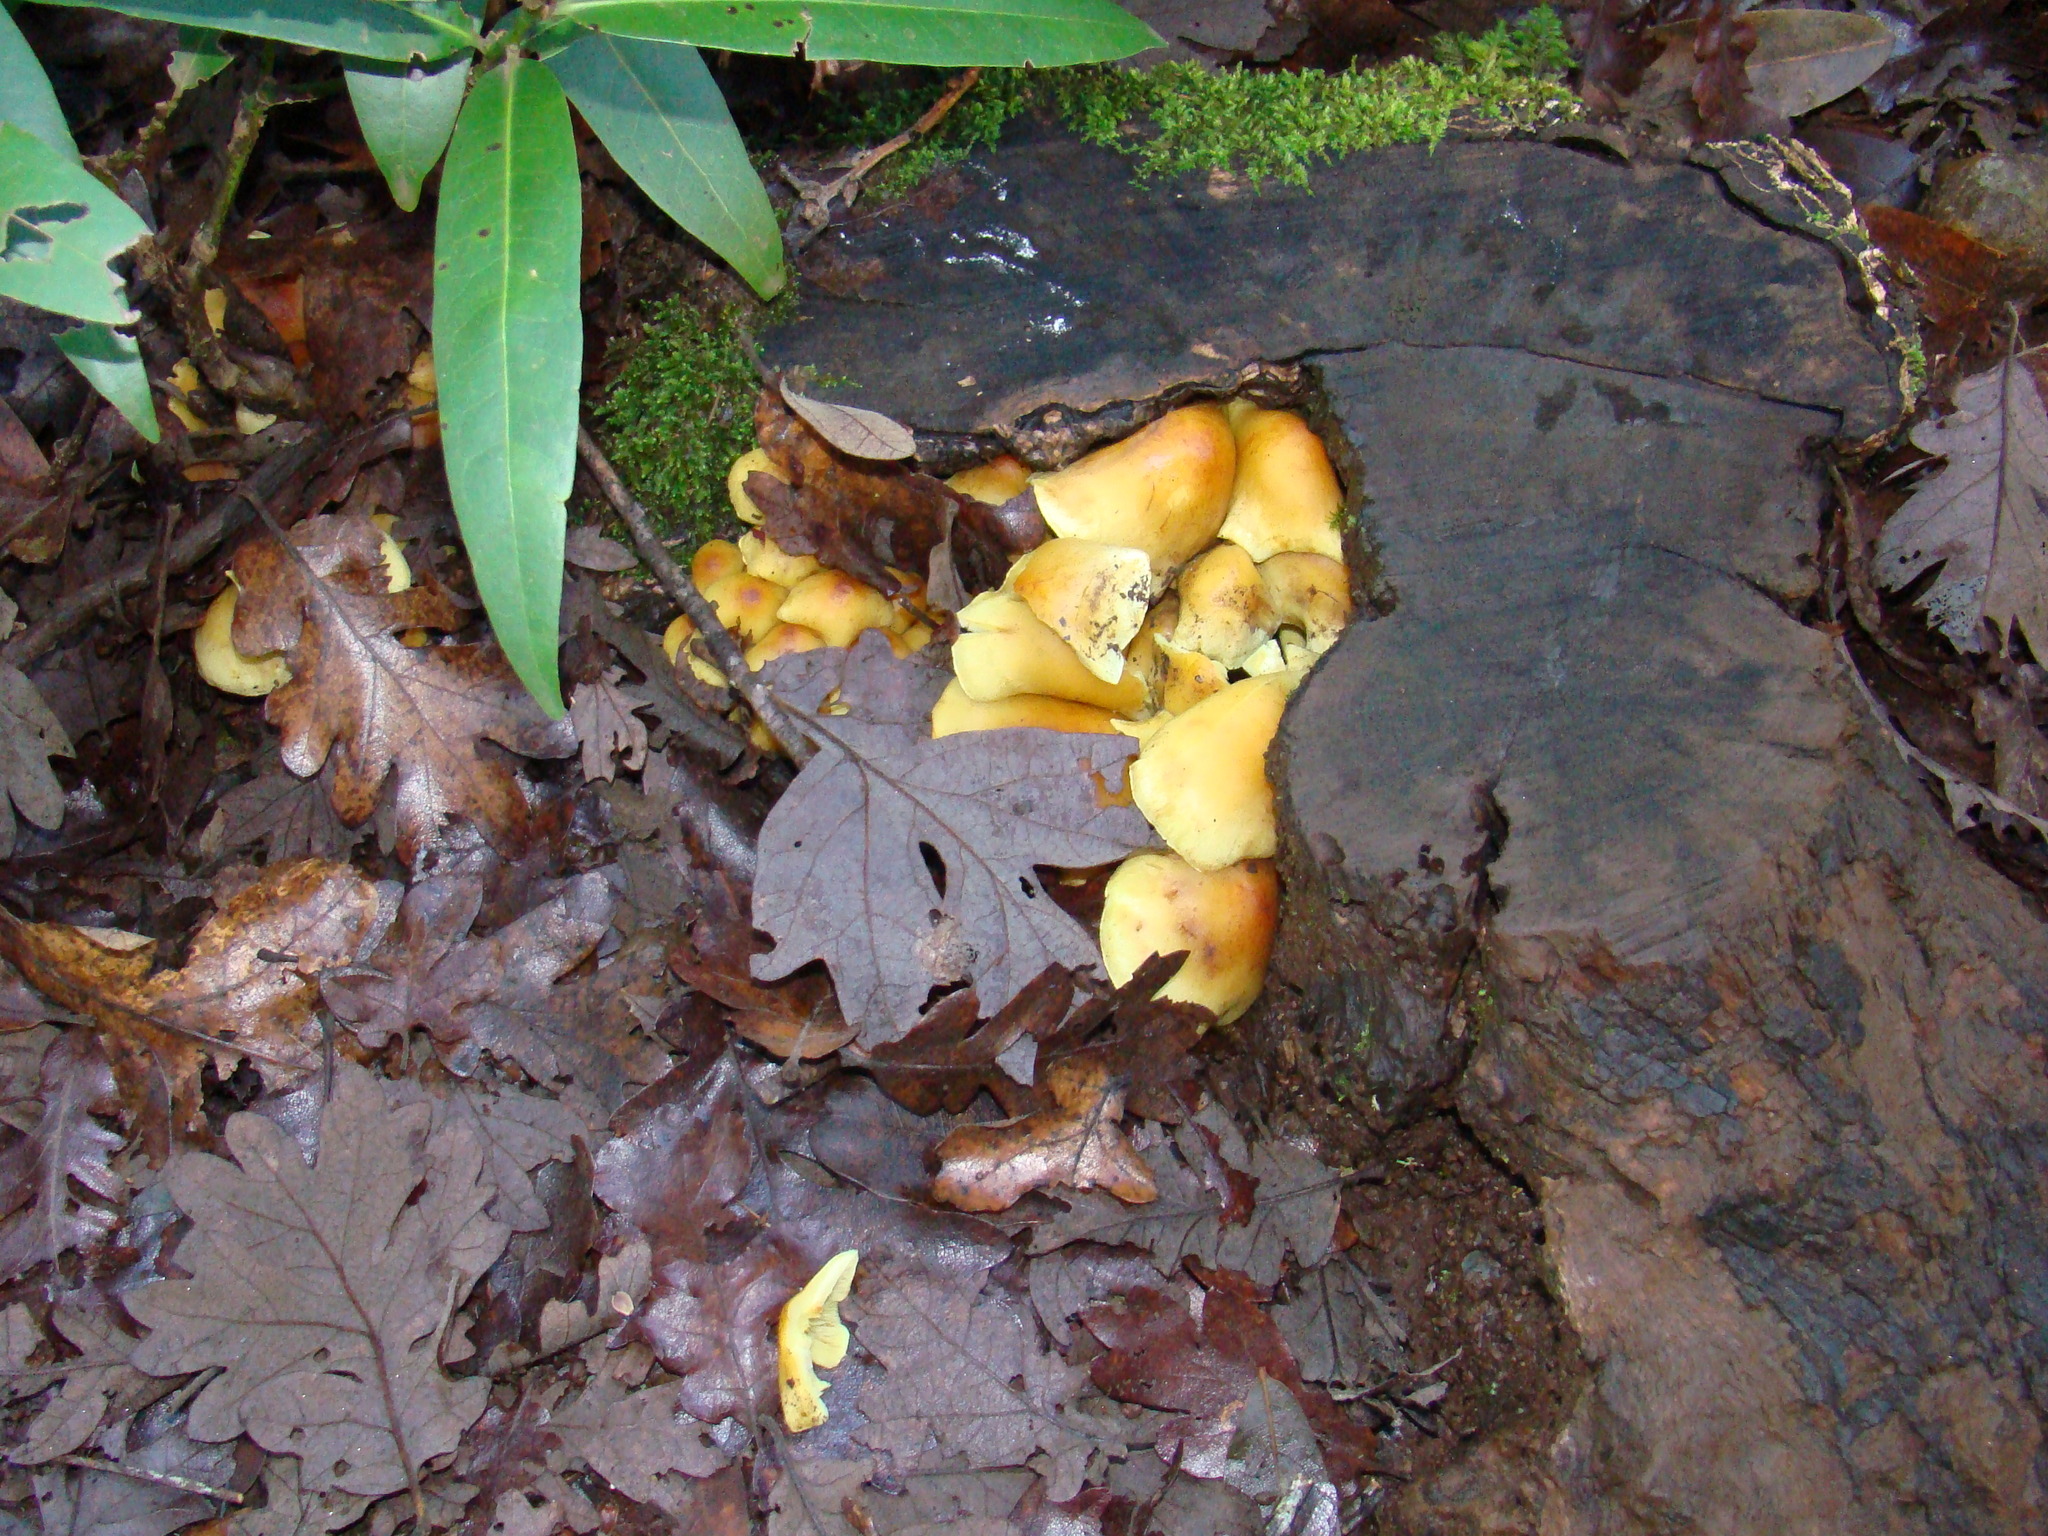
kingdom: Fungi
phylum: Basidiomycota
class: Agaricomycetes
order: Agaricales
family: Strophariaceae
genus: Hypholoma
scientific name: Hypholoma fasciculare
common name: Sulphur tuft
